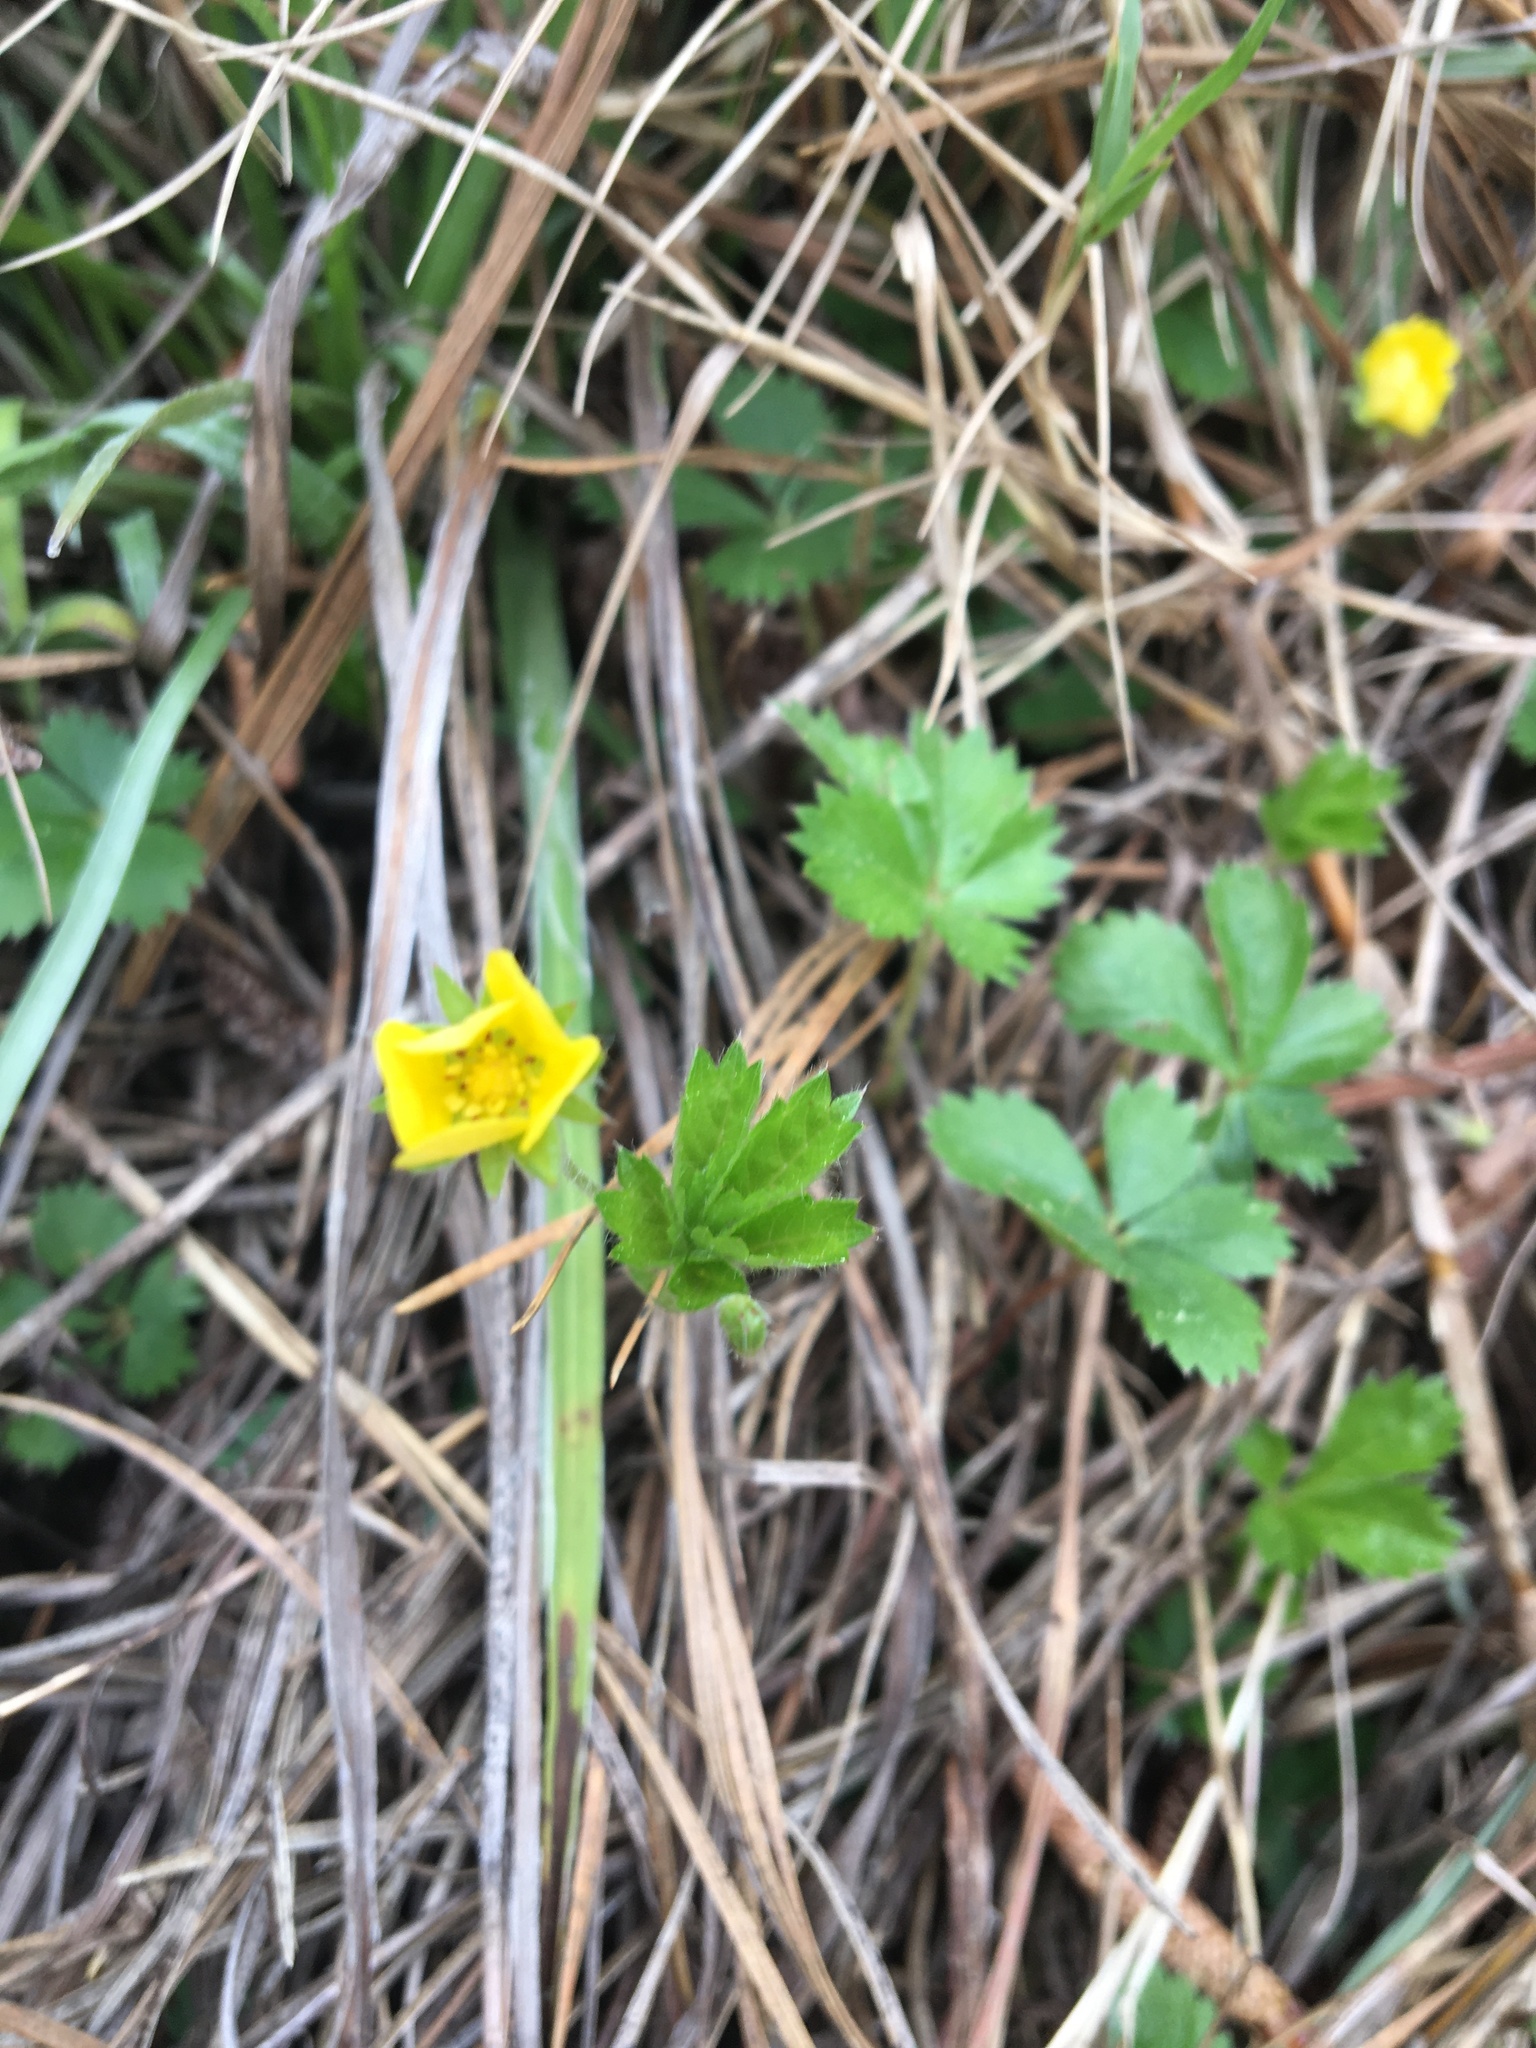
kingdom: Plantae
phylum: Tracheophyta
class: Magnoliopsida
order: Rosales
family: Rosaceae
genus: Potentilla
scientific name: Potentilla canadensis
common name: Canada cinquefoil
